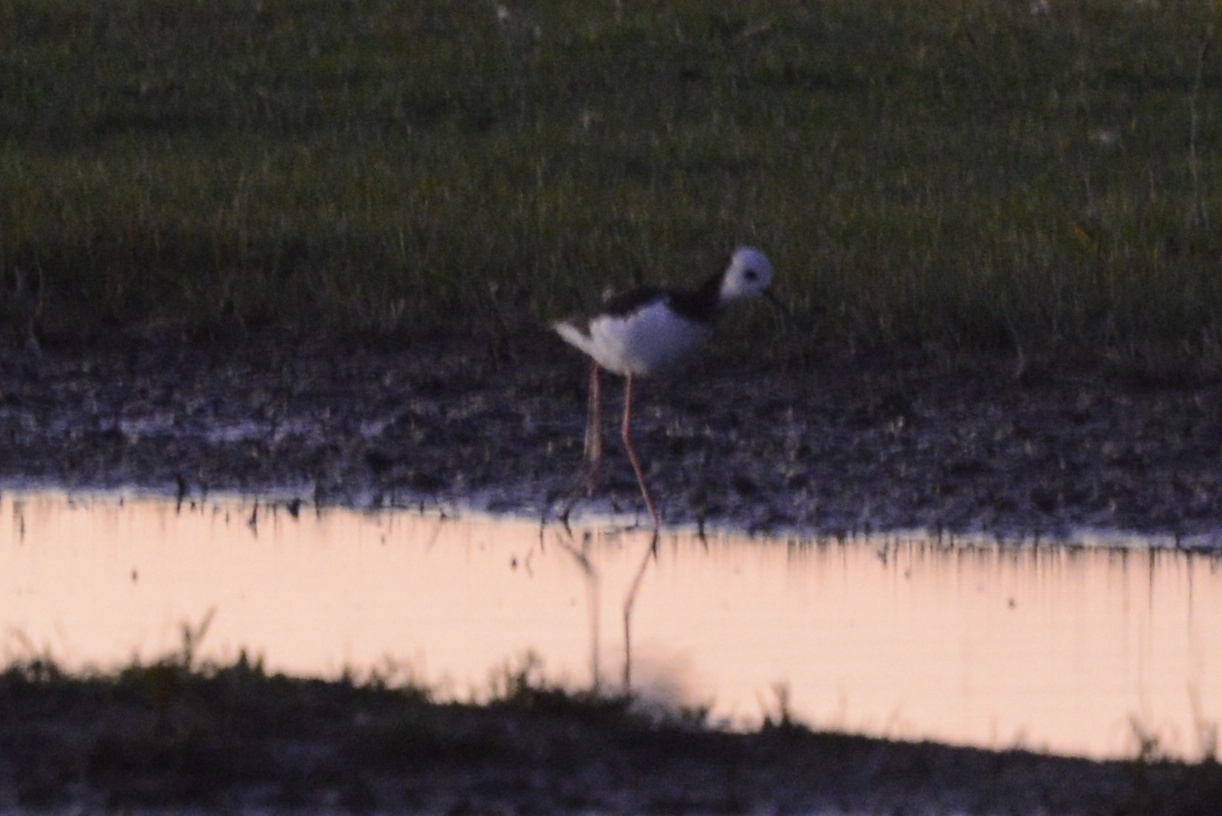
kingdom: Animalia
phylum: Chordata
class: Aves
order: Charadriiformes
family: Recurvirostridae
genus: Himantopus
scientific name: Himantopus leucocephalus
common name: White-headed stilt
